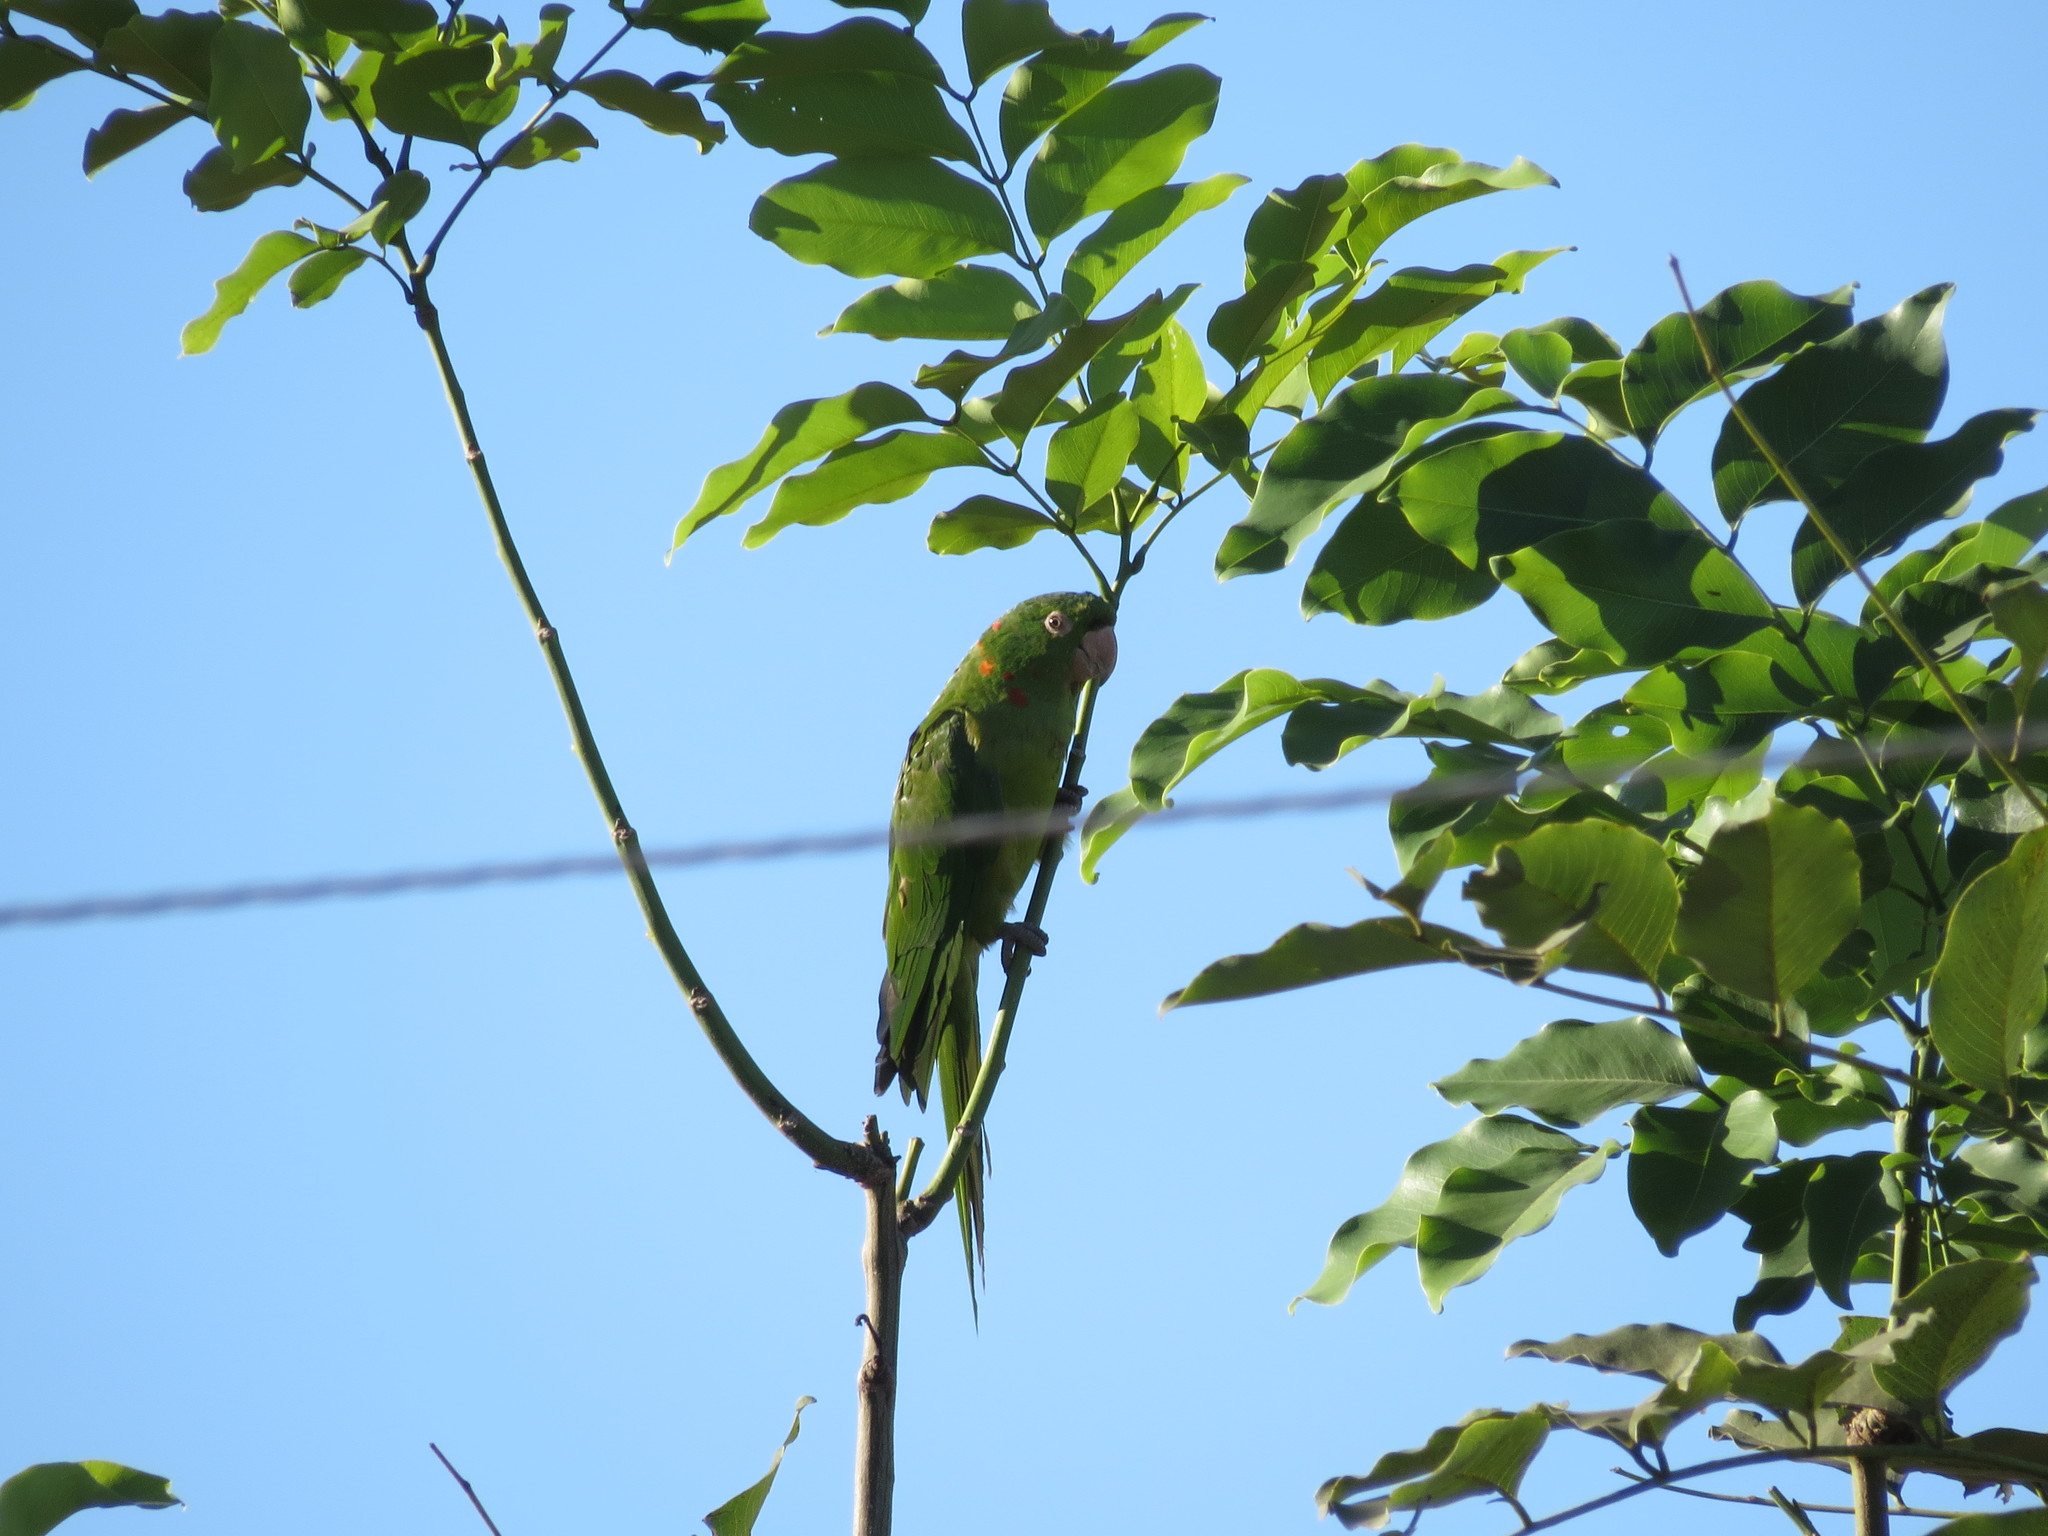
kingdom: Animalia
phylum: Chordata
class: Aves
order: Psittaciformes
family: Psittacidae
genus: Aratinga
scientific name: Aratinga leucophthalma
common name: White-eyed parakeet
